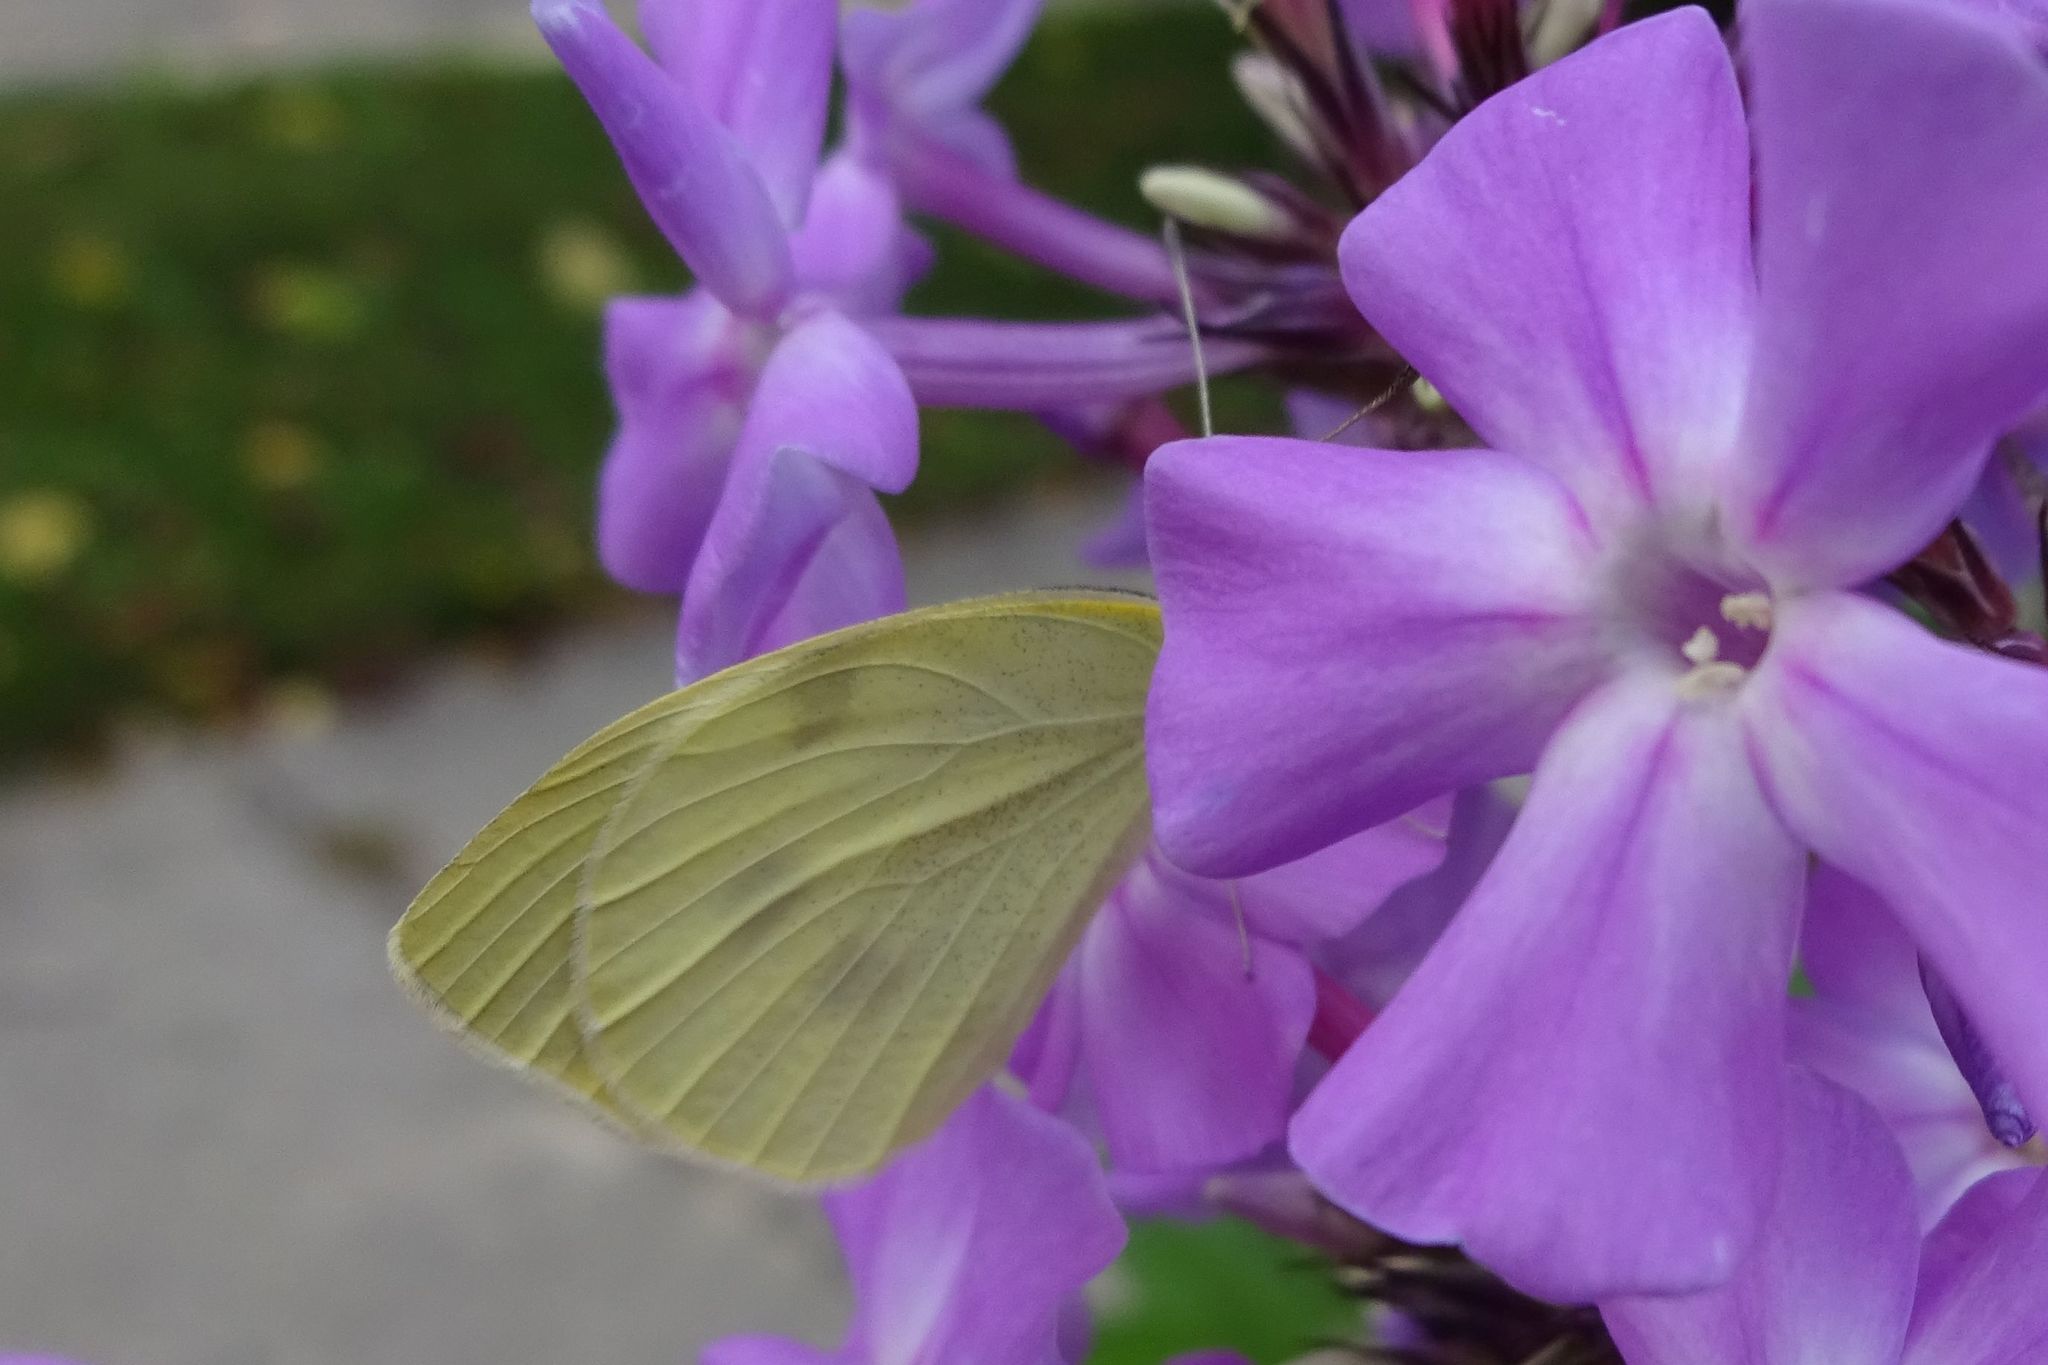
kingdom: Animalia
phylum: Arthropoda
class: Insecta
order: Lepidoptera
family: Pieridae
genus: Pieris
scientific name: Pieris rapae
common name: Small white
